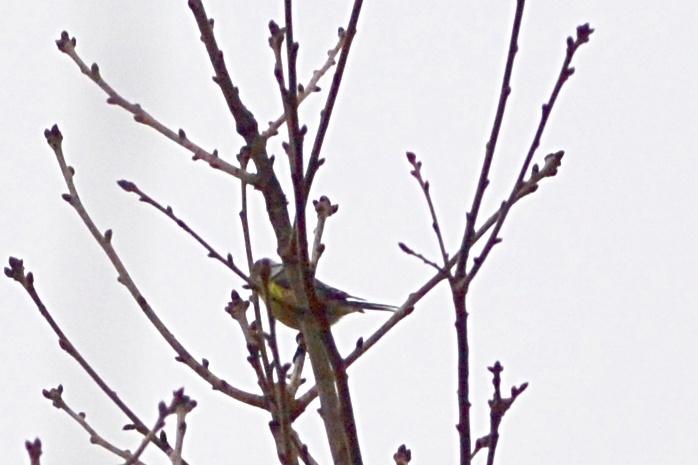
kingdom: Animalia
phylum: Chordata
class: Aves
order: Passeriformes
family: Paridae
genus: Cyanistes
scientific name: Cyanistes caeruleus
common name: Eurasian blue tit
